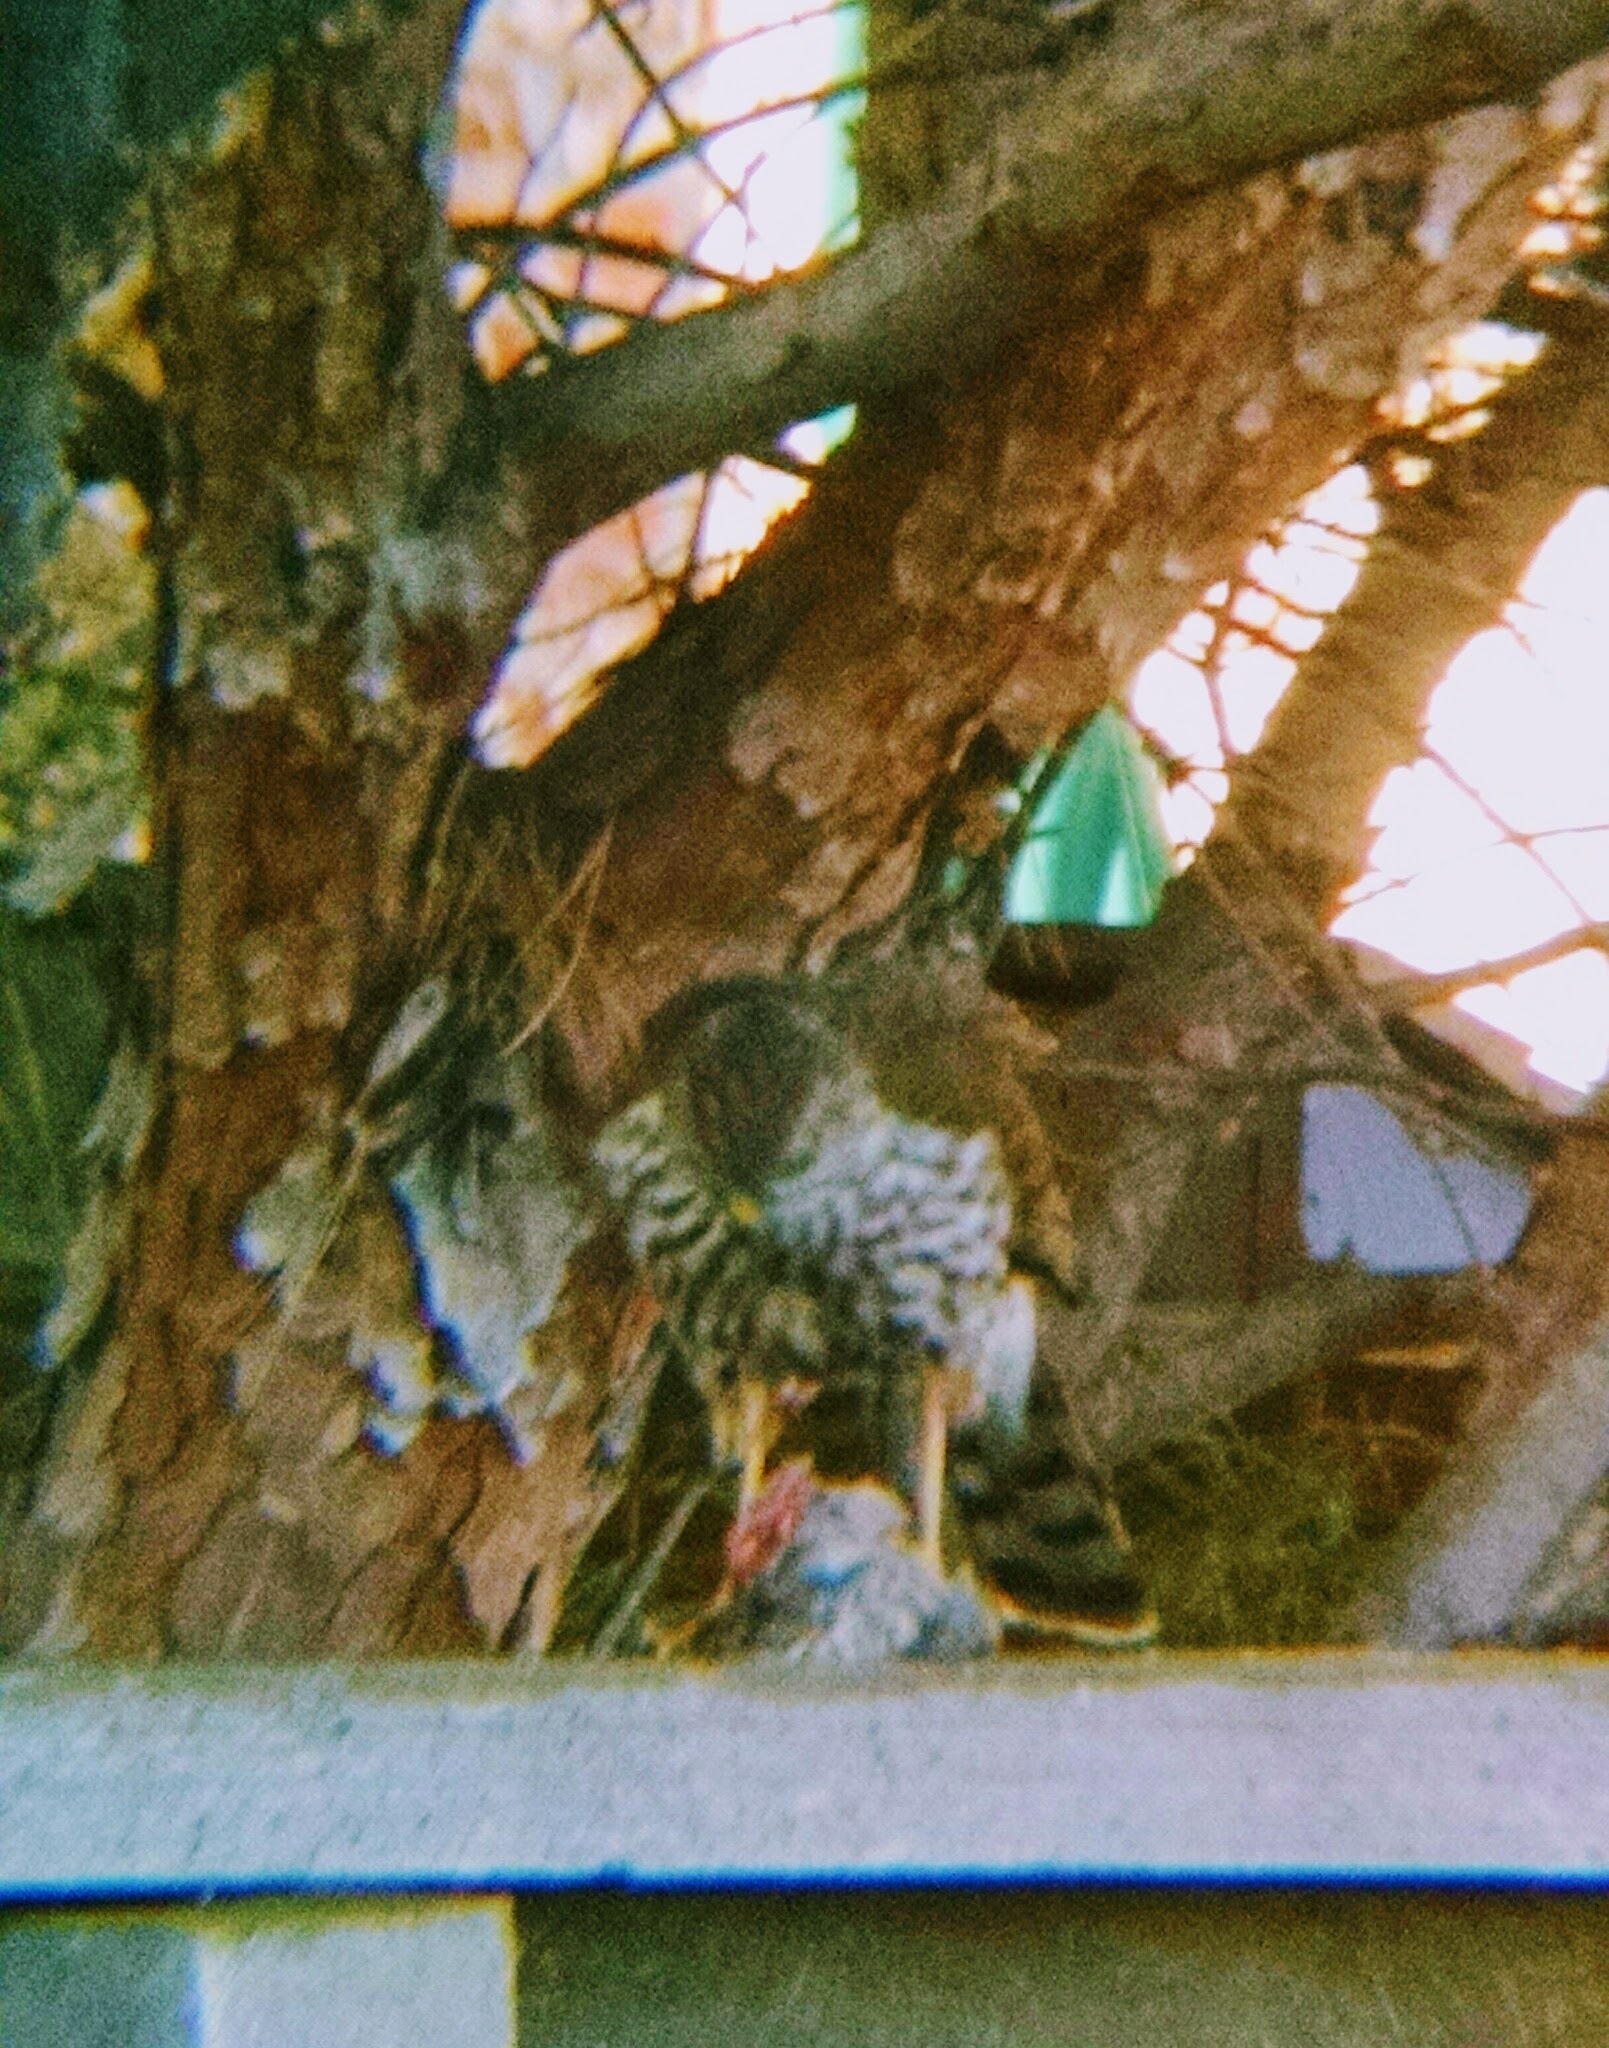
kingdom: Animalia
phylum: Chordata
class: Aves
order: Accipitriformes
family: Accipitridae
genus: Accipiter
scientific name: Accipiter cooperii
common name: Cooper's hawk
